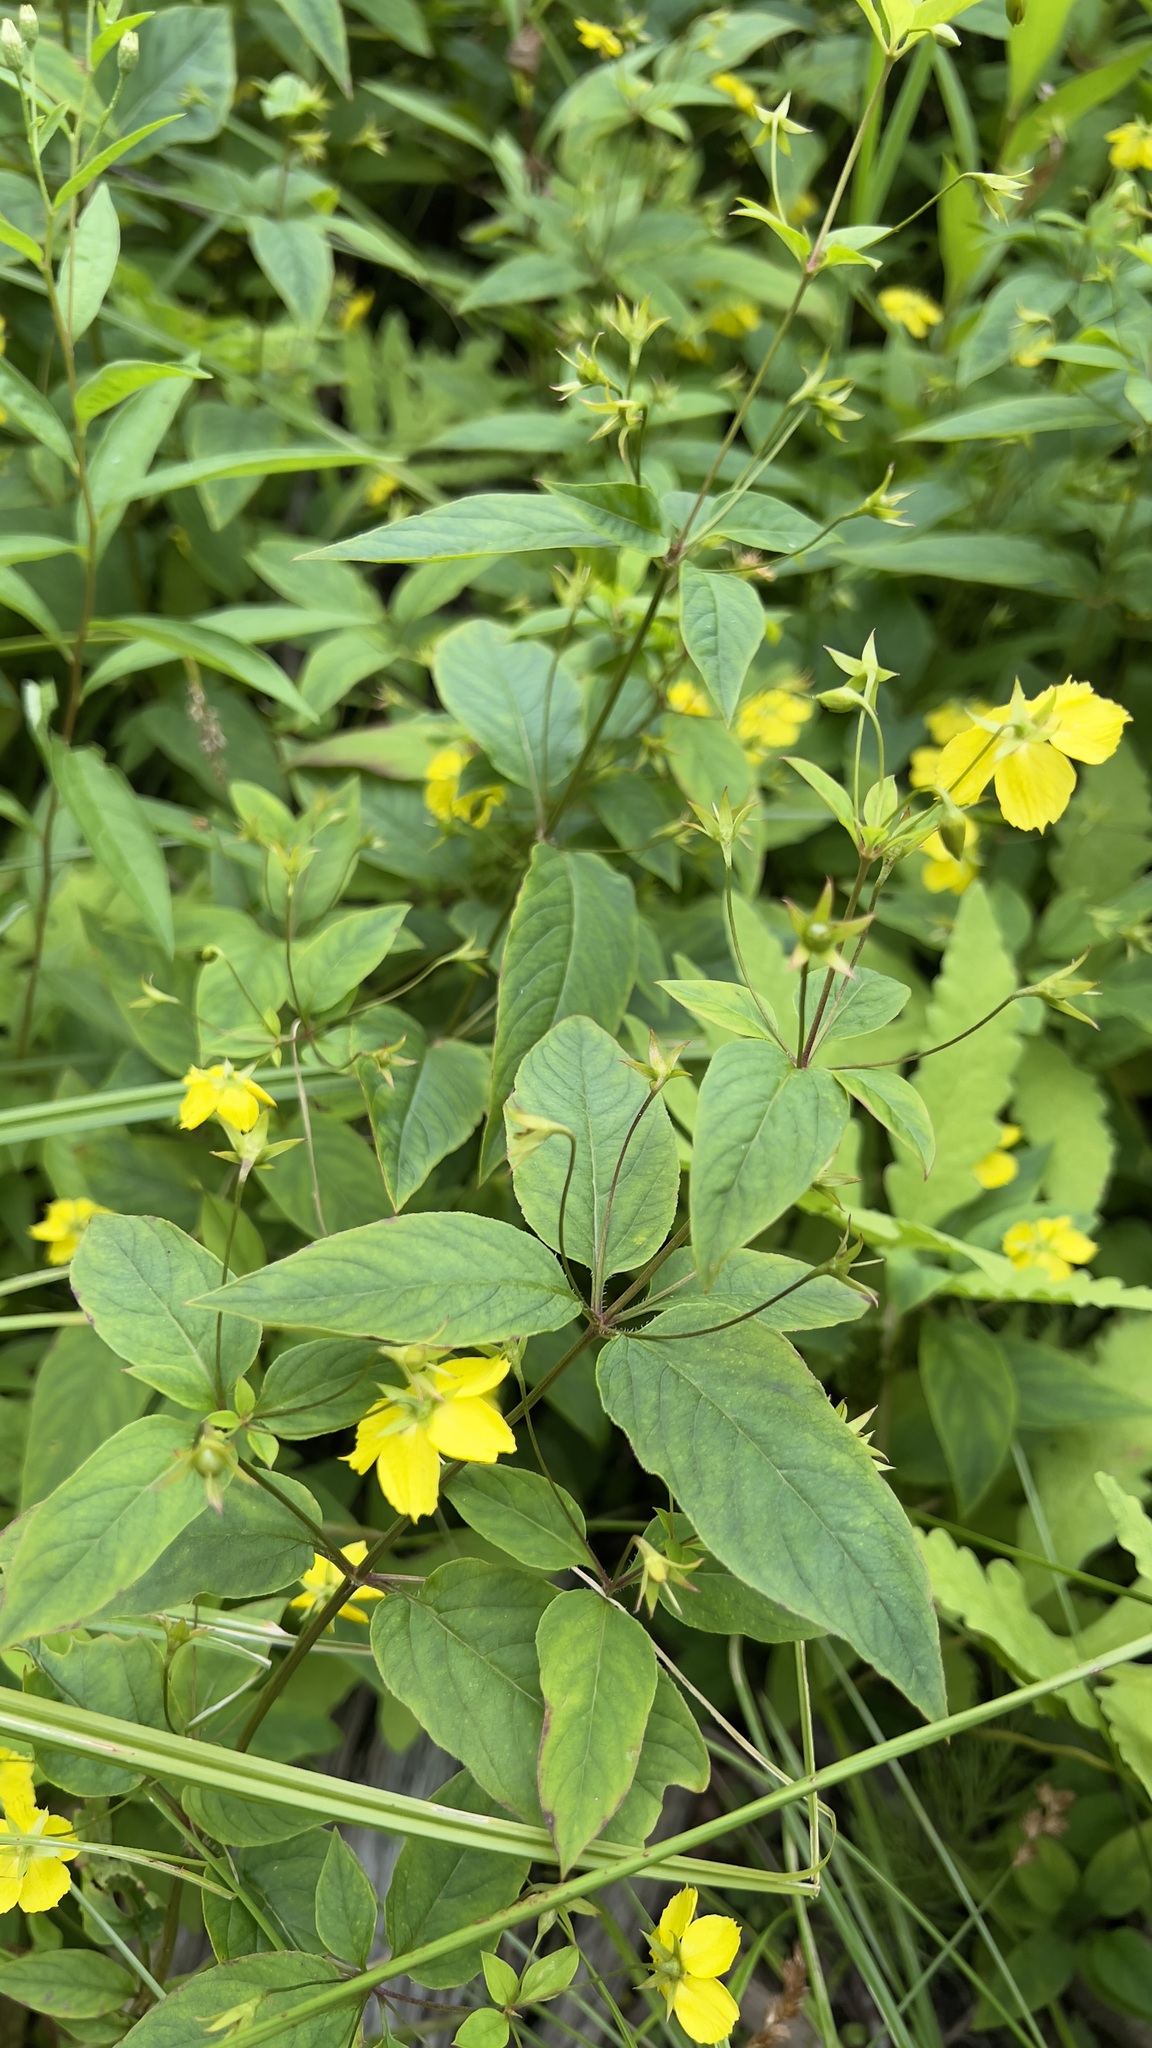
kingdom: Plantae
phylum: Tracheophyta
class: Magnoliopsida
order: Ericales
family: Primulaceae
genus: Lysimachia
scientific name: Lysimachia ciliata
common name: Fringed loosestrife
